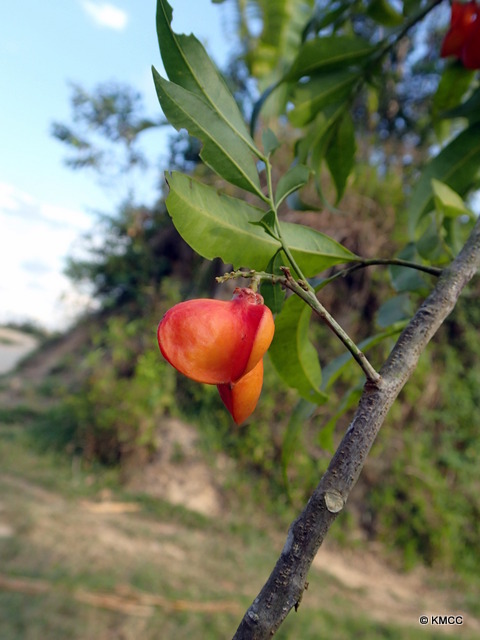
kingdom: Plantae
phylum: Tracheophyta
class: Magnoliopsida
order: Sapindales
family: Sapindaceae
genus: Majidea
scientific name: Majidea zanguebarica
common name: Velvet-seed
